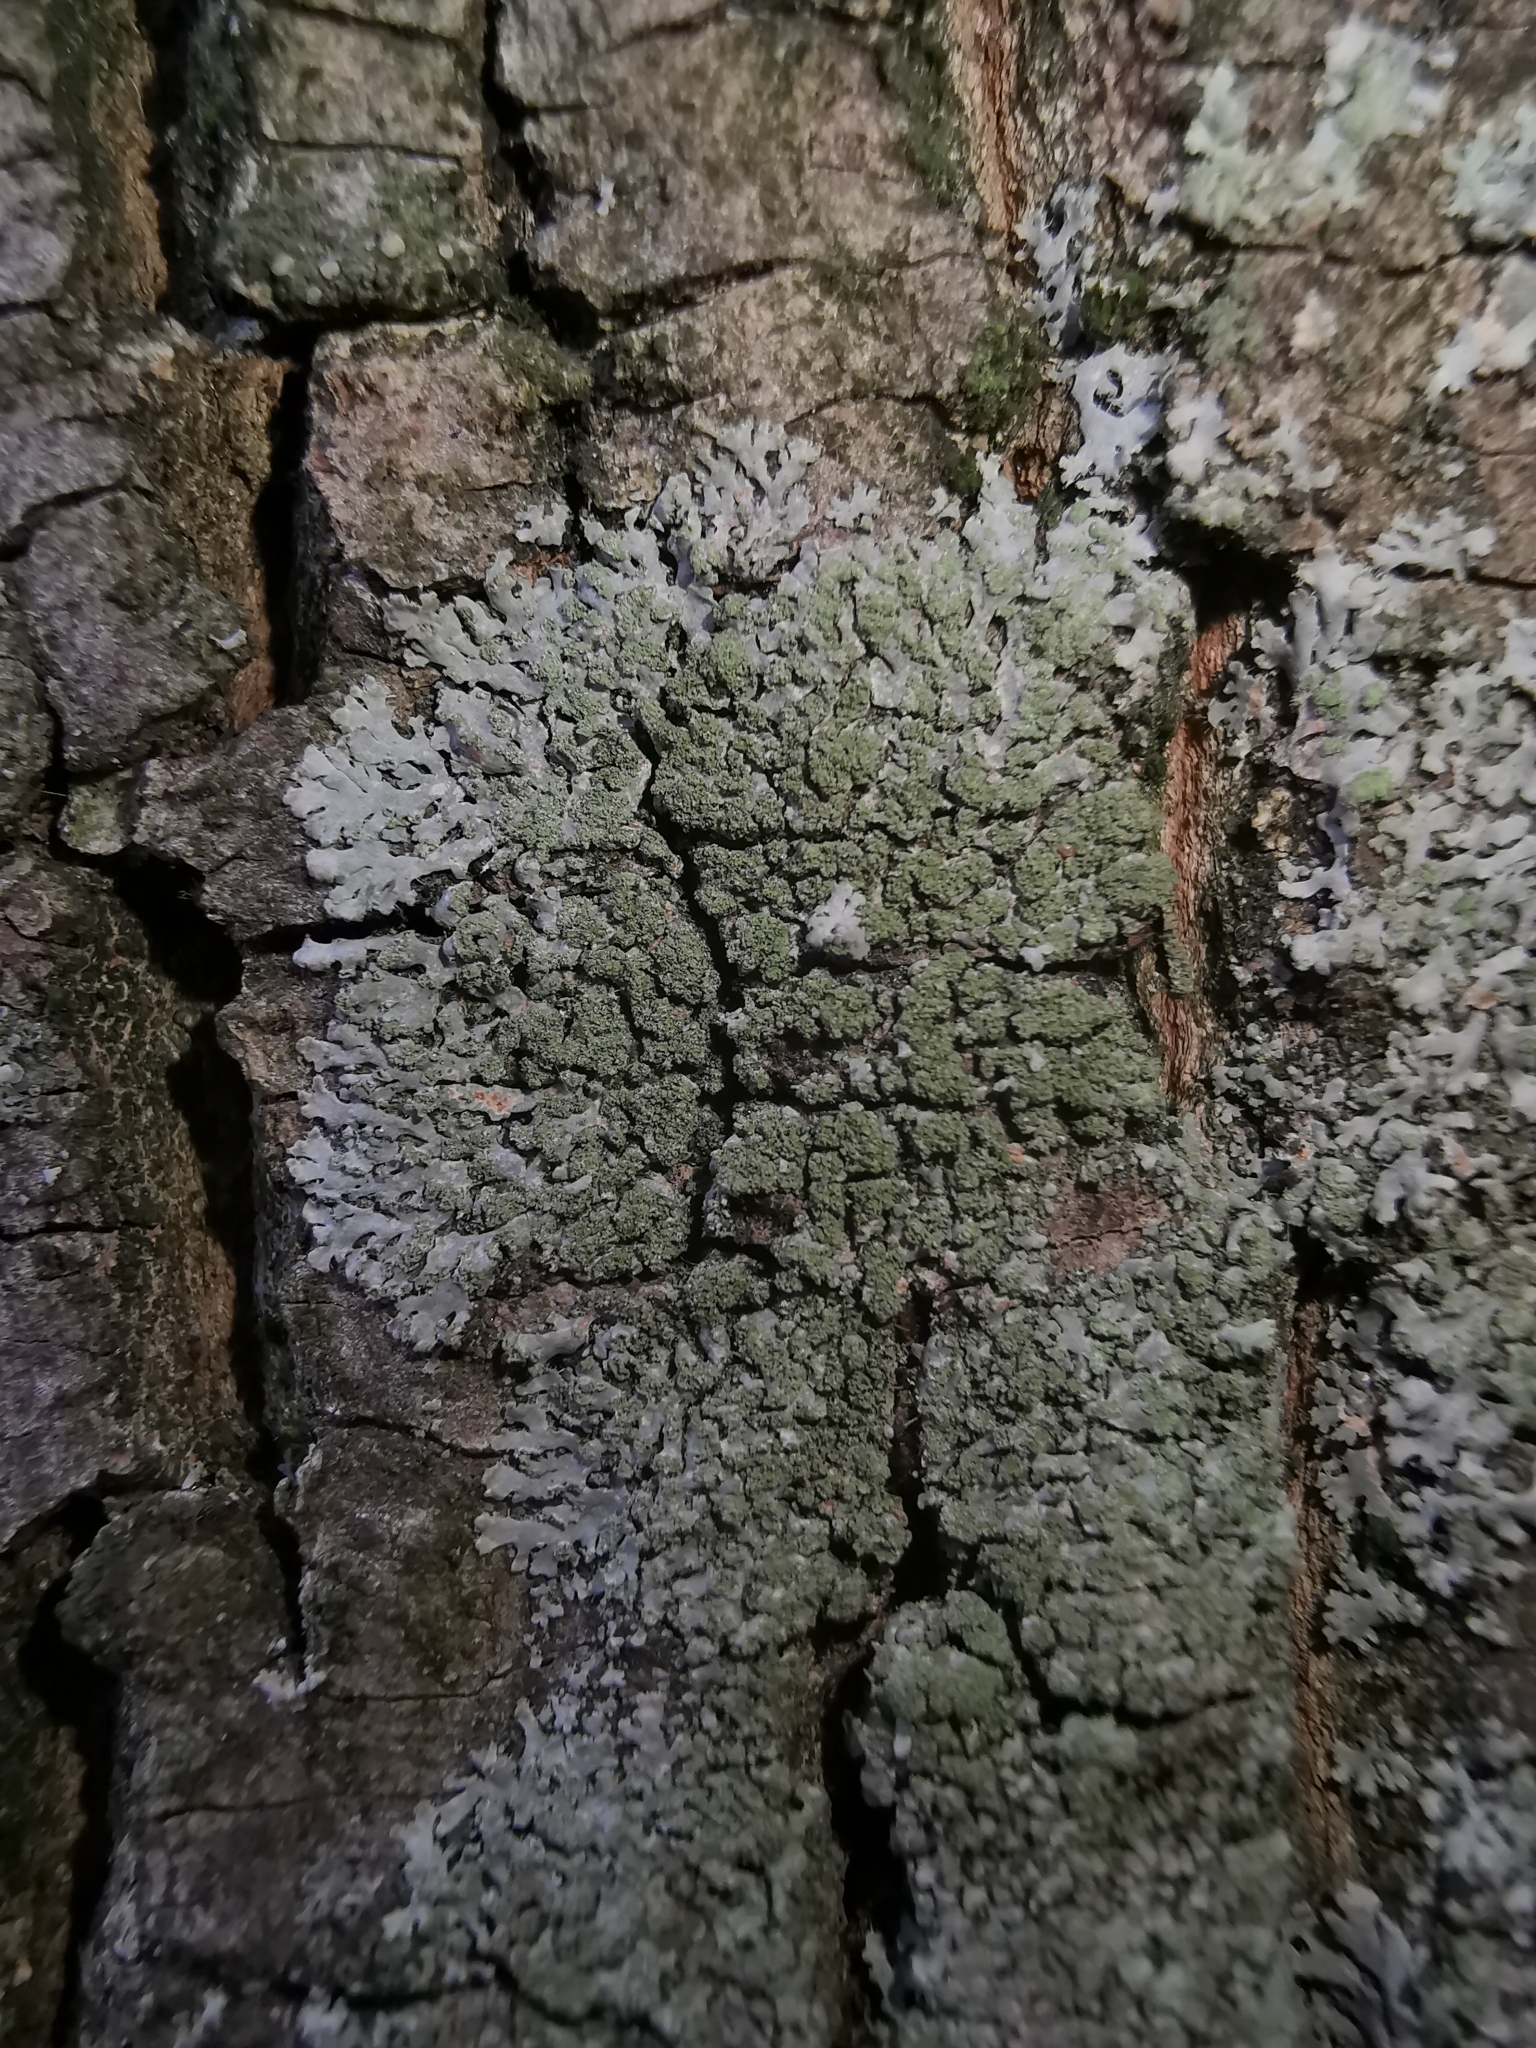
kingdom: Fungi
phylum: Ascomycota
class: Lecanoromycetes
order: Caliciales
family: Physciaceae
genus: Phaeophyscia
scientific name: Phaeophyscia orbicularis
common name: Mealy shadow lichen
